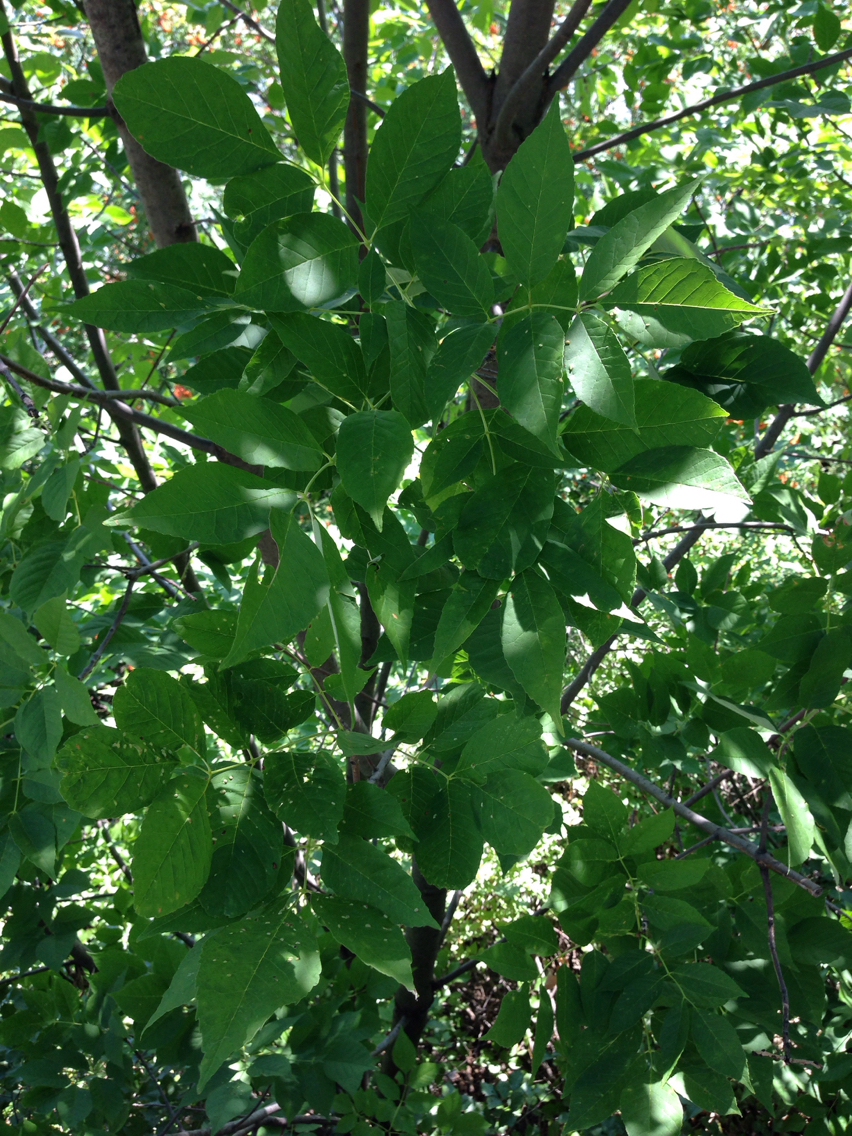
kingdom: Plantae
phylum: Tracheophyta
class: Magnoliopsida
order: Lamiales
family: Oleaceae
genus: Fraxinus
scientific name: Fraxinus americana
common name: White ash
